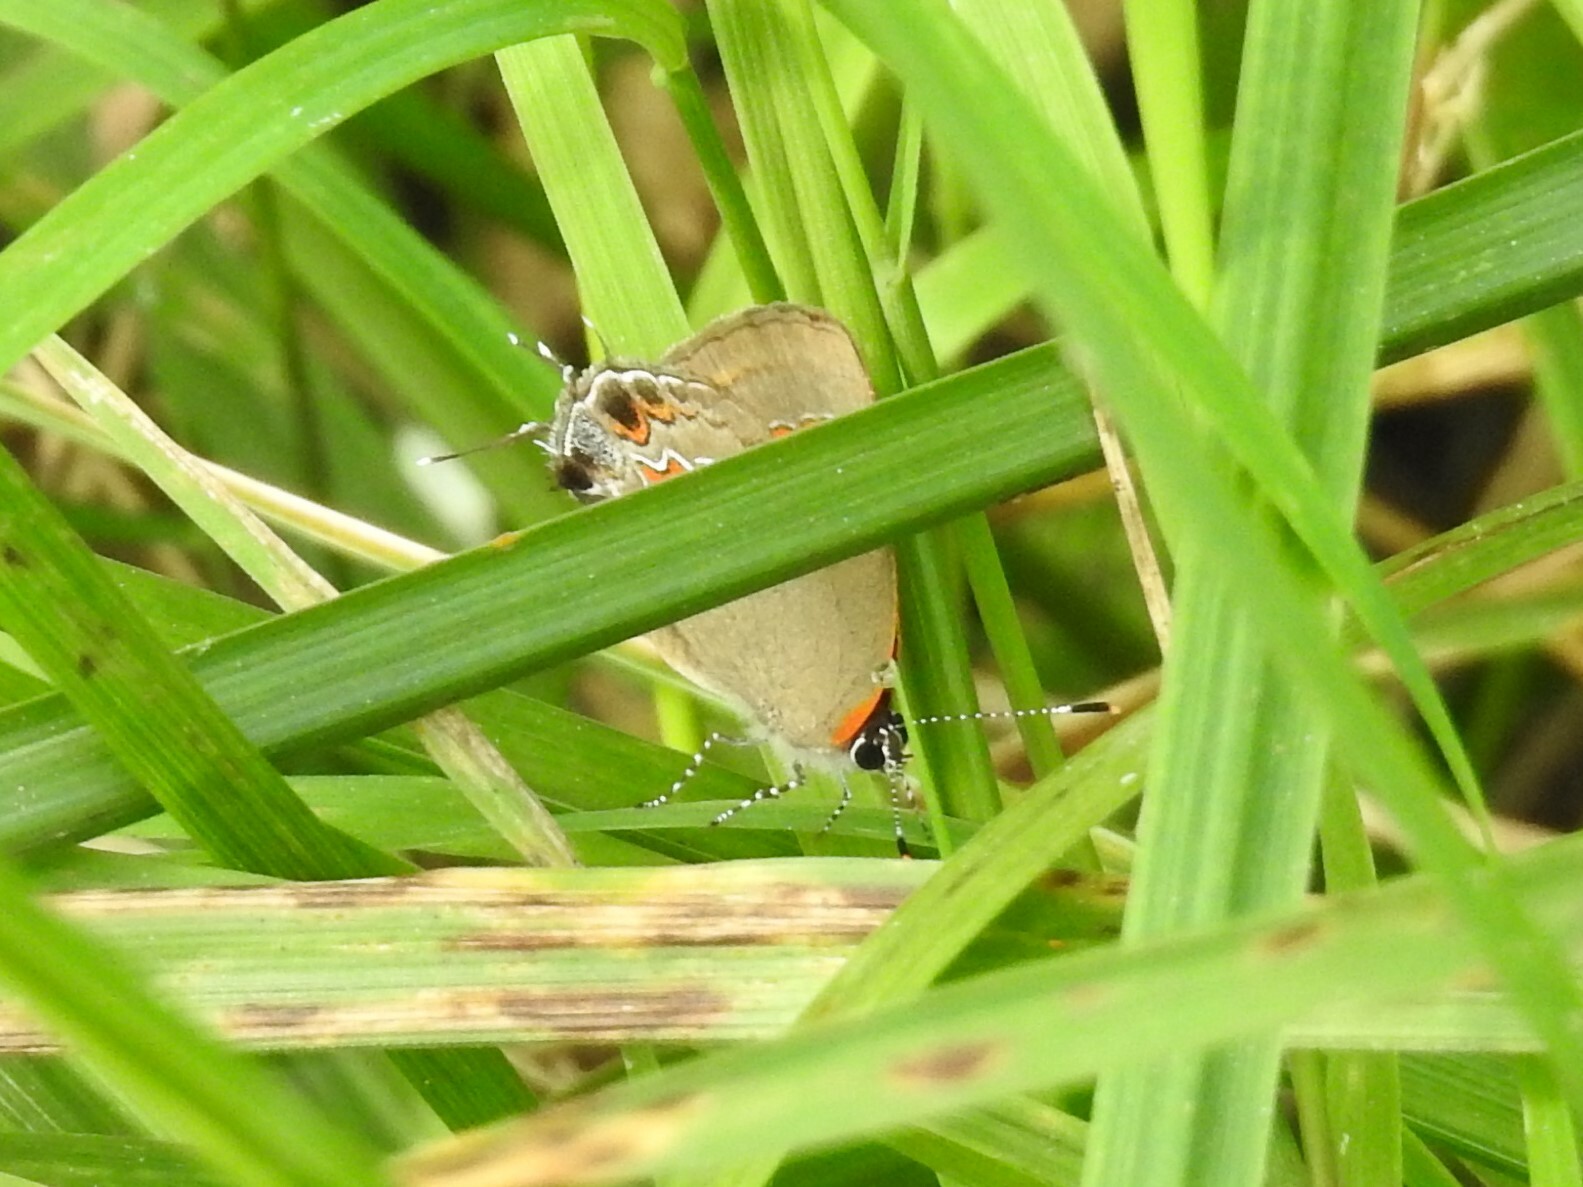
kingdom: Animalia
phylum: Arthropoda
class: Insecta
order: Lepidoptera
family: Lycaenidae
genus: Calycopis
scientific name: Calycopis cecrops
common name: Red-banded hairstreak
